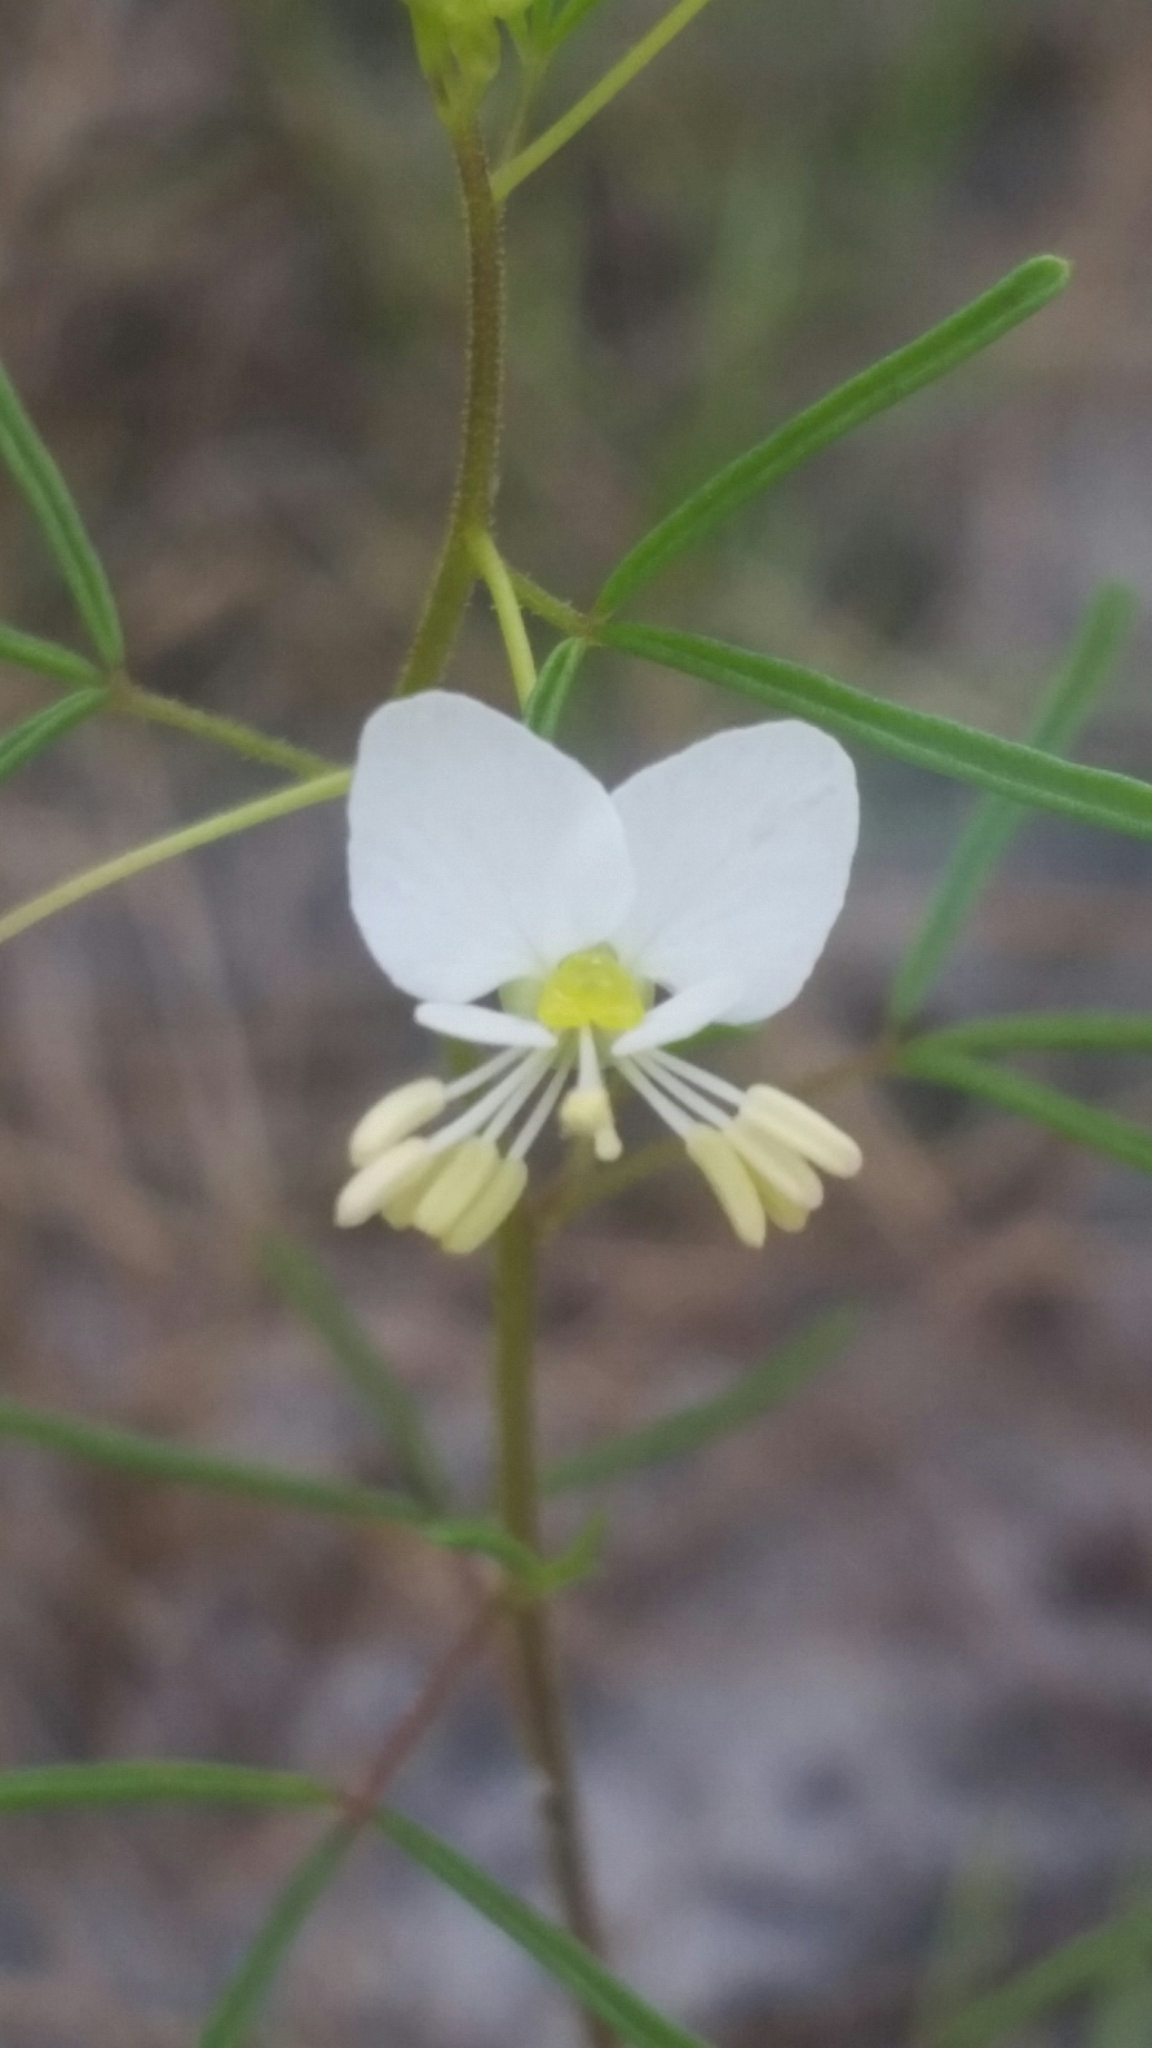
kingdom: Plantae
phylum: Tracheophyta
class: Magnoliopsida
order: Brassicales
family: Cleomaceae
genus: Polanisia
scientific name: Polanisia tenuifolia
